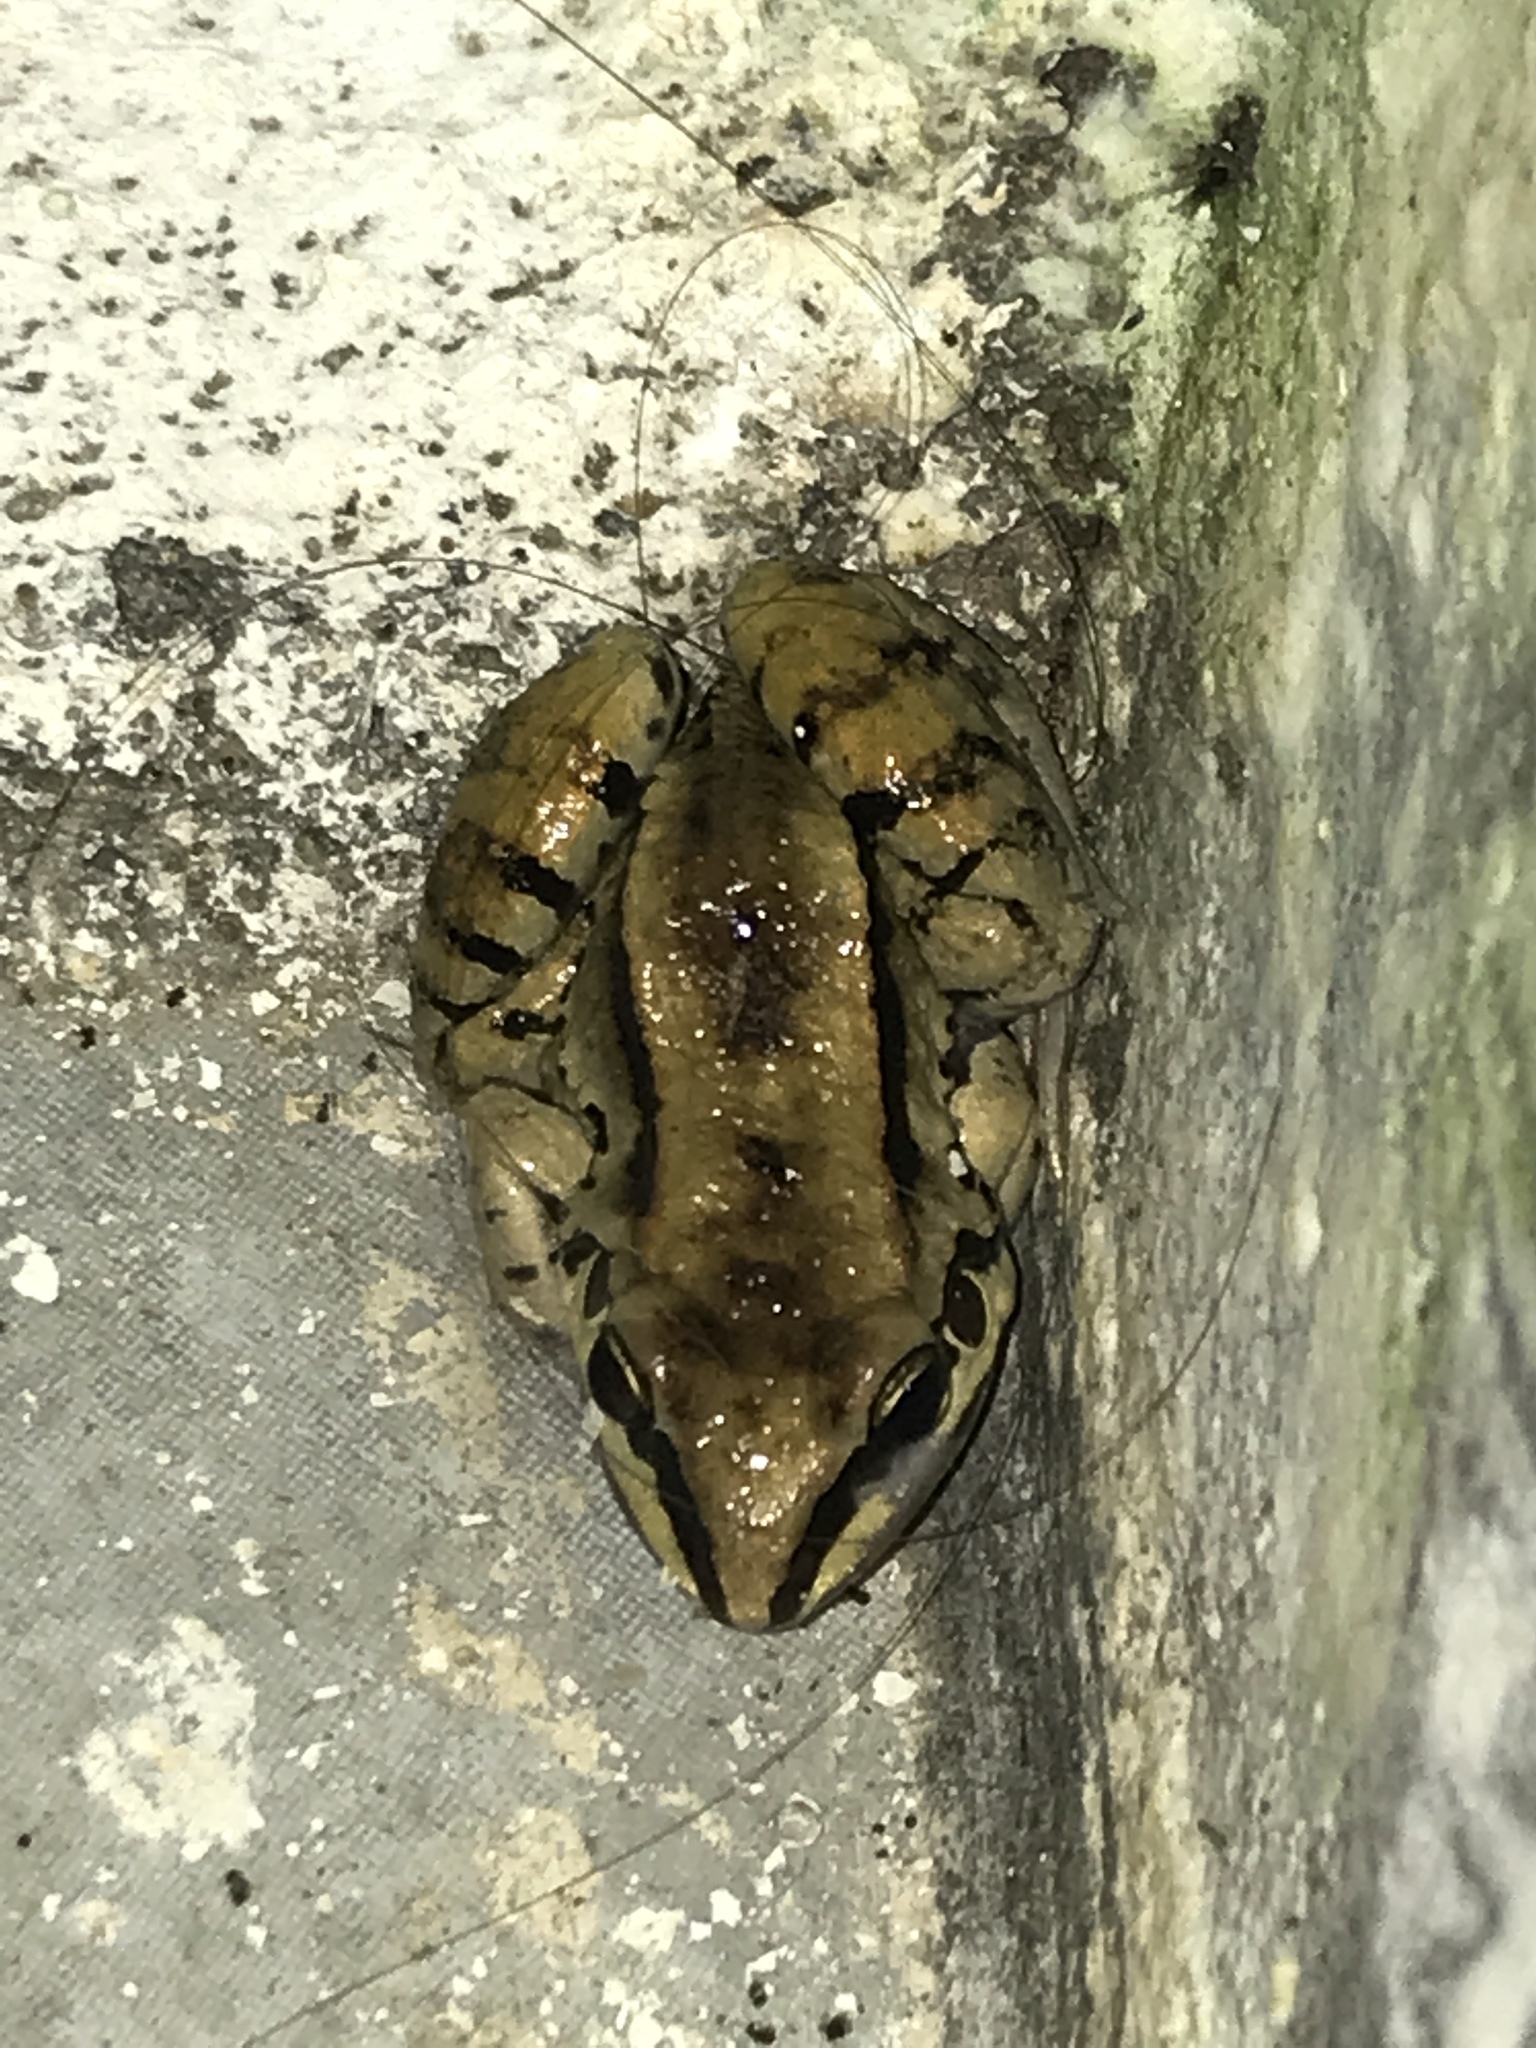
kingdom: Animalia
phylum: Chordata
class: Amphibia
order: Anura
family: Leptodactylidae
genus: Leptodactylus
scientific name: Leptodactylus mystacinus
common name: Moustached frog
